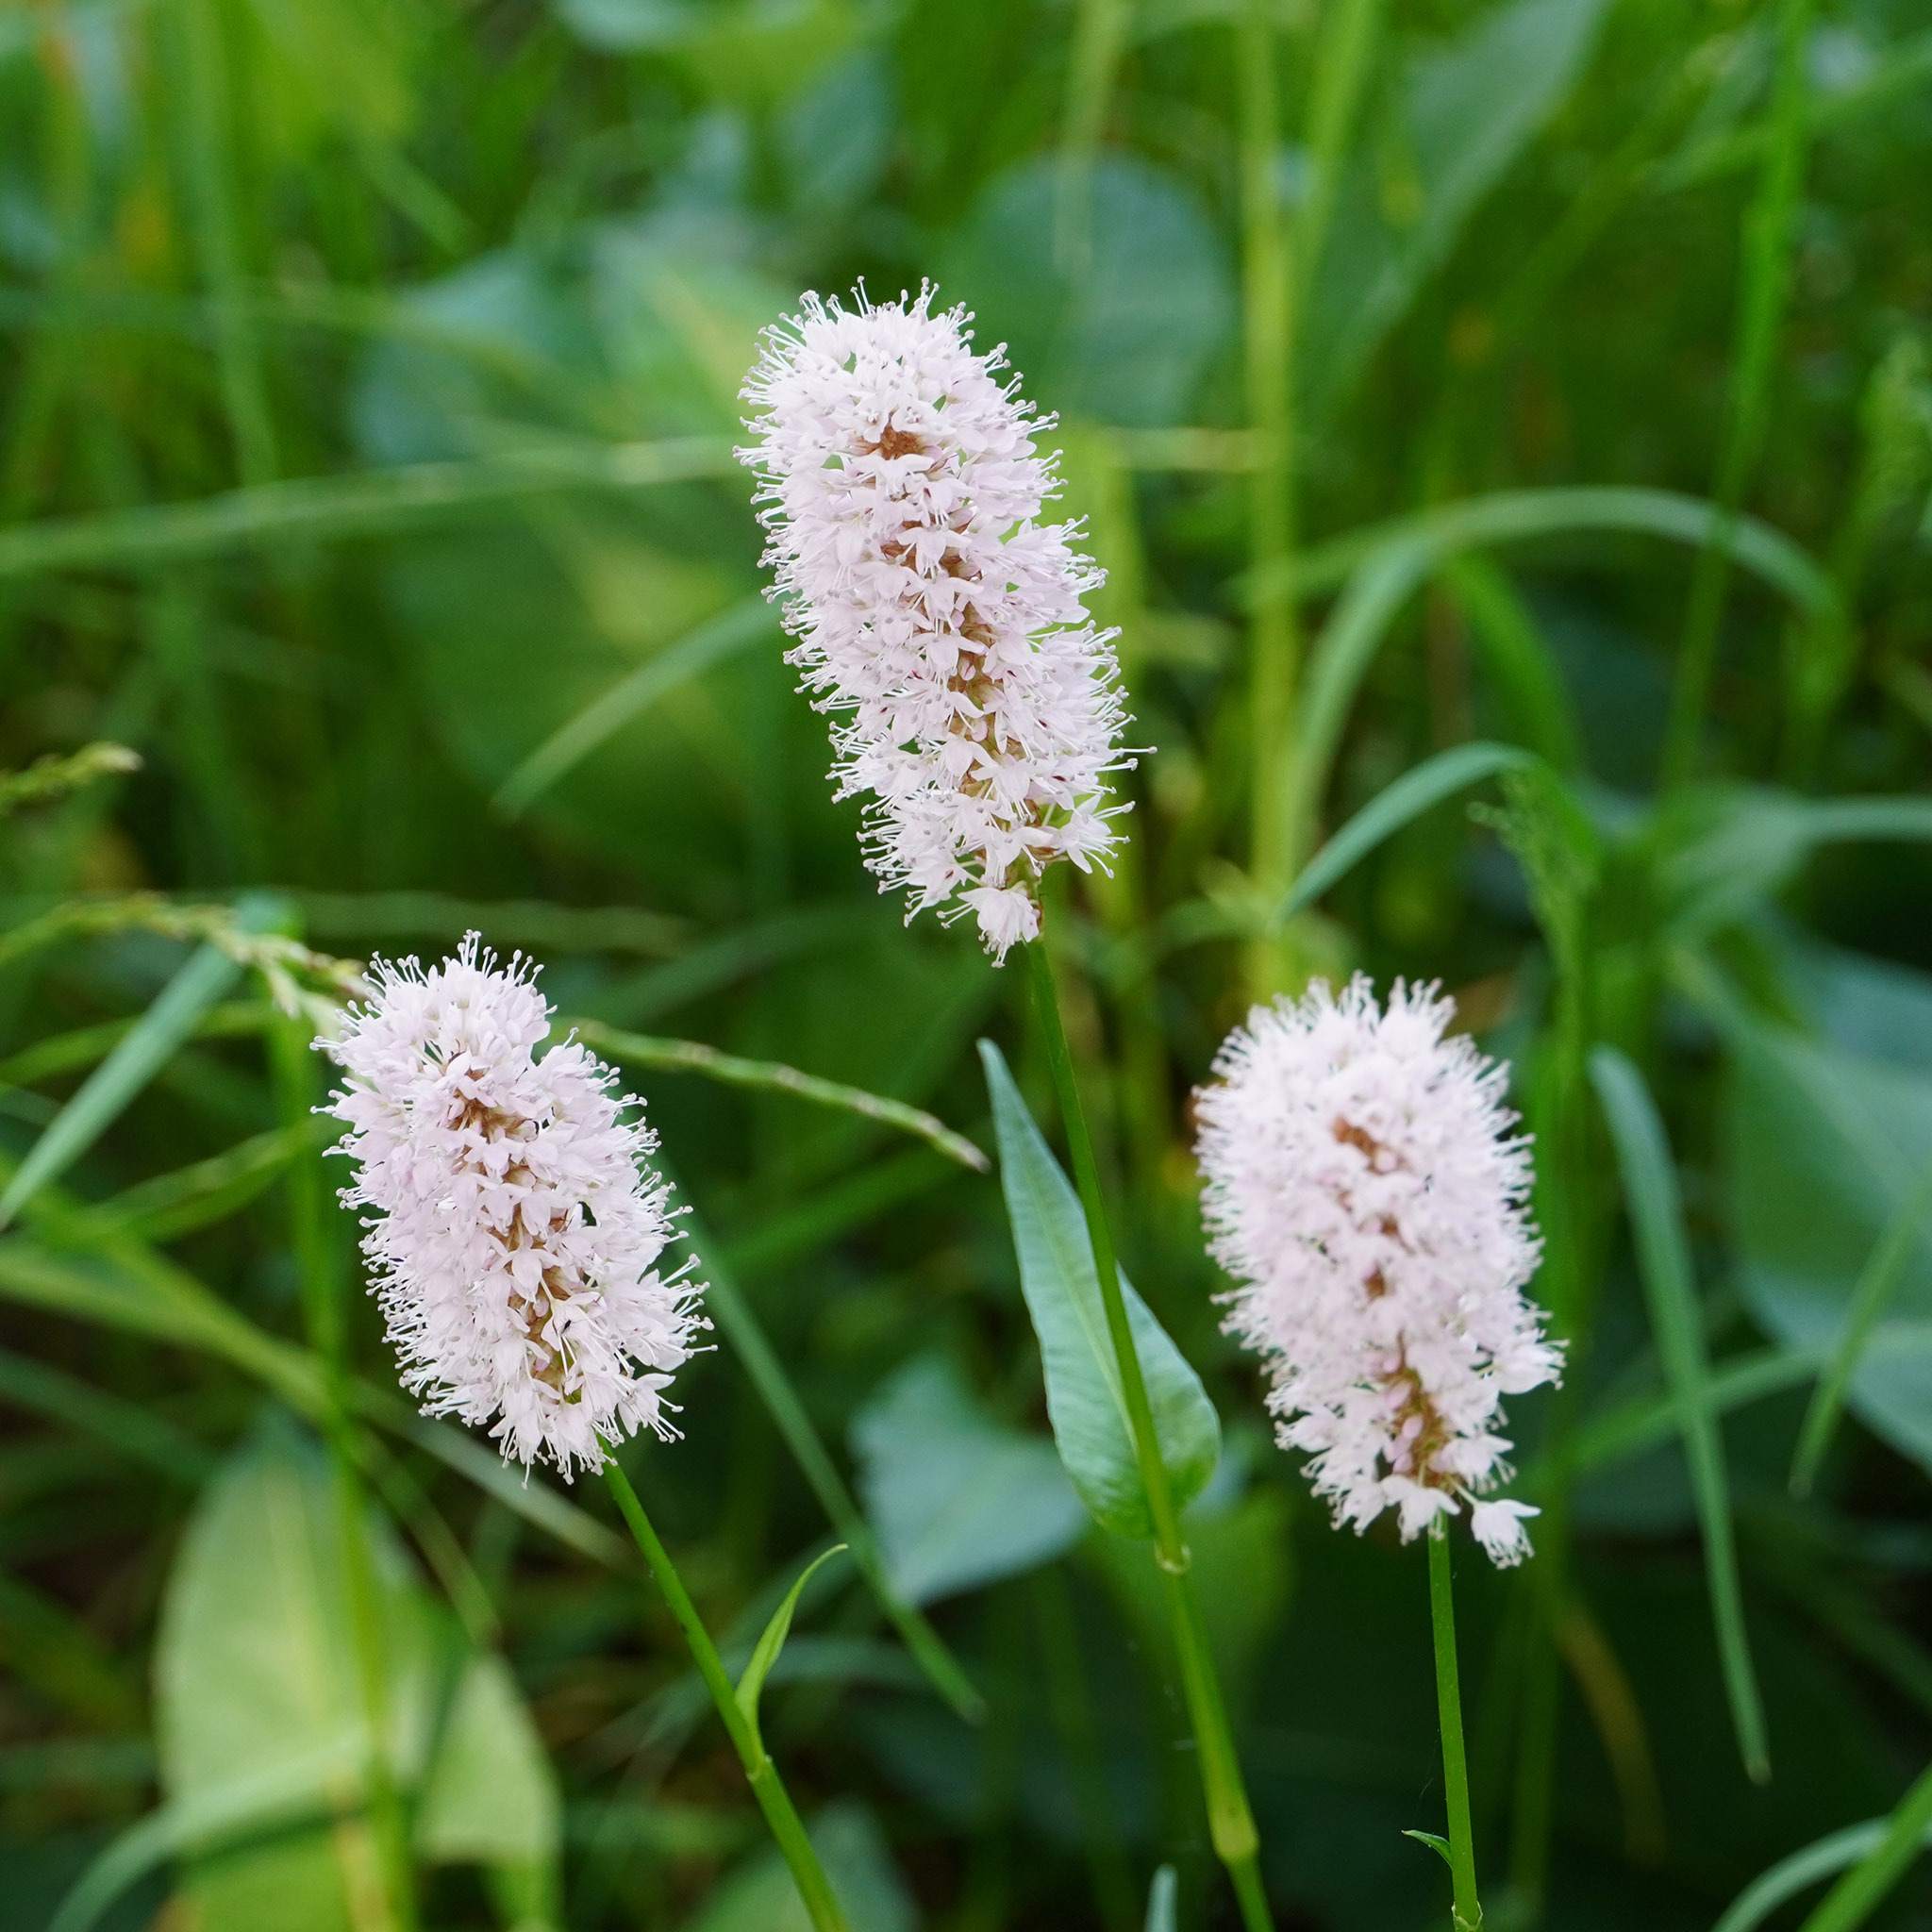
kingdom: Plantae
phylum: Tracheophyta
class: Magnoliopsida
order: Caryophyllales
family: Polygonaceae
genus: Bistorta
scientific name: Bistorta officinalis
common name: Common bistort
